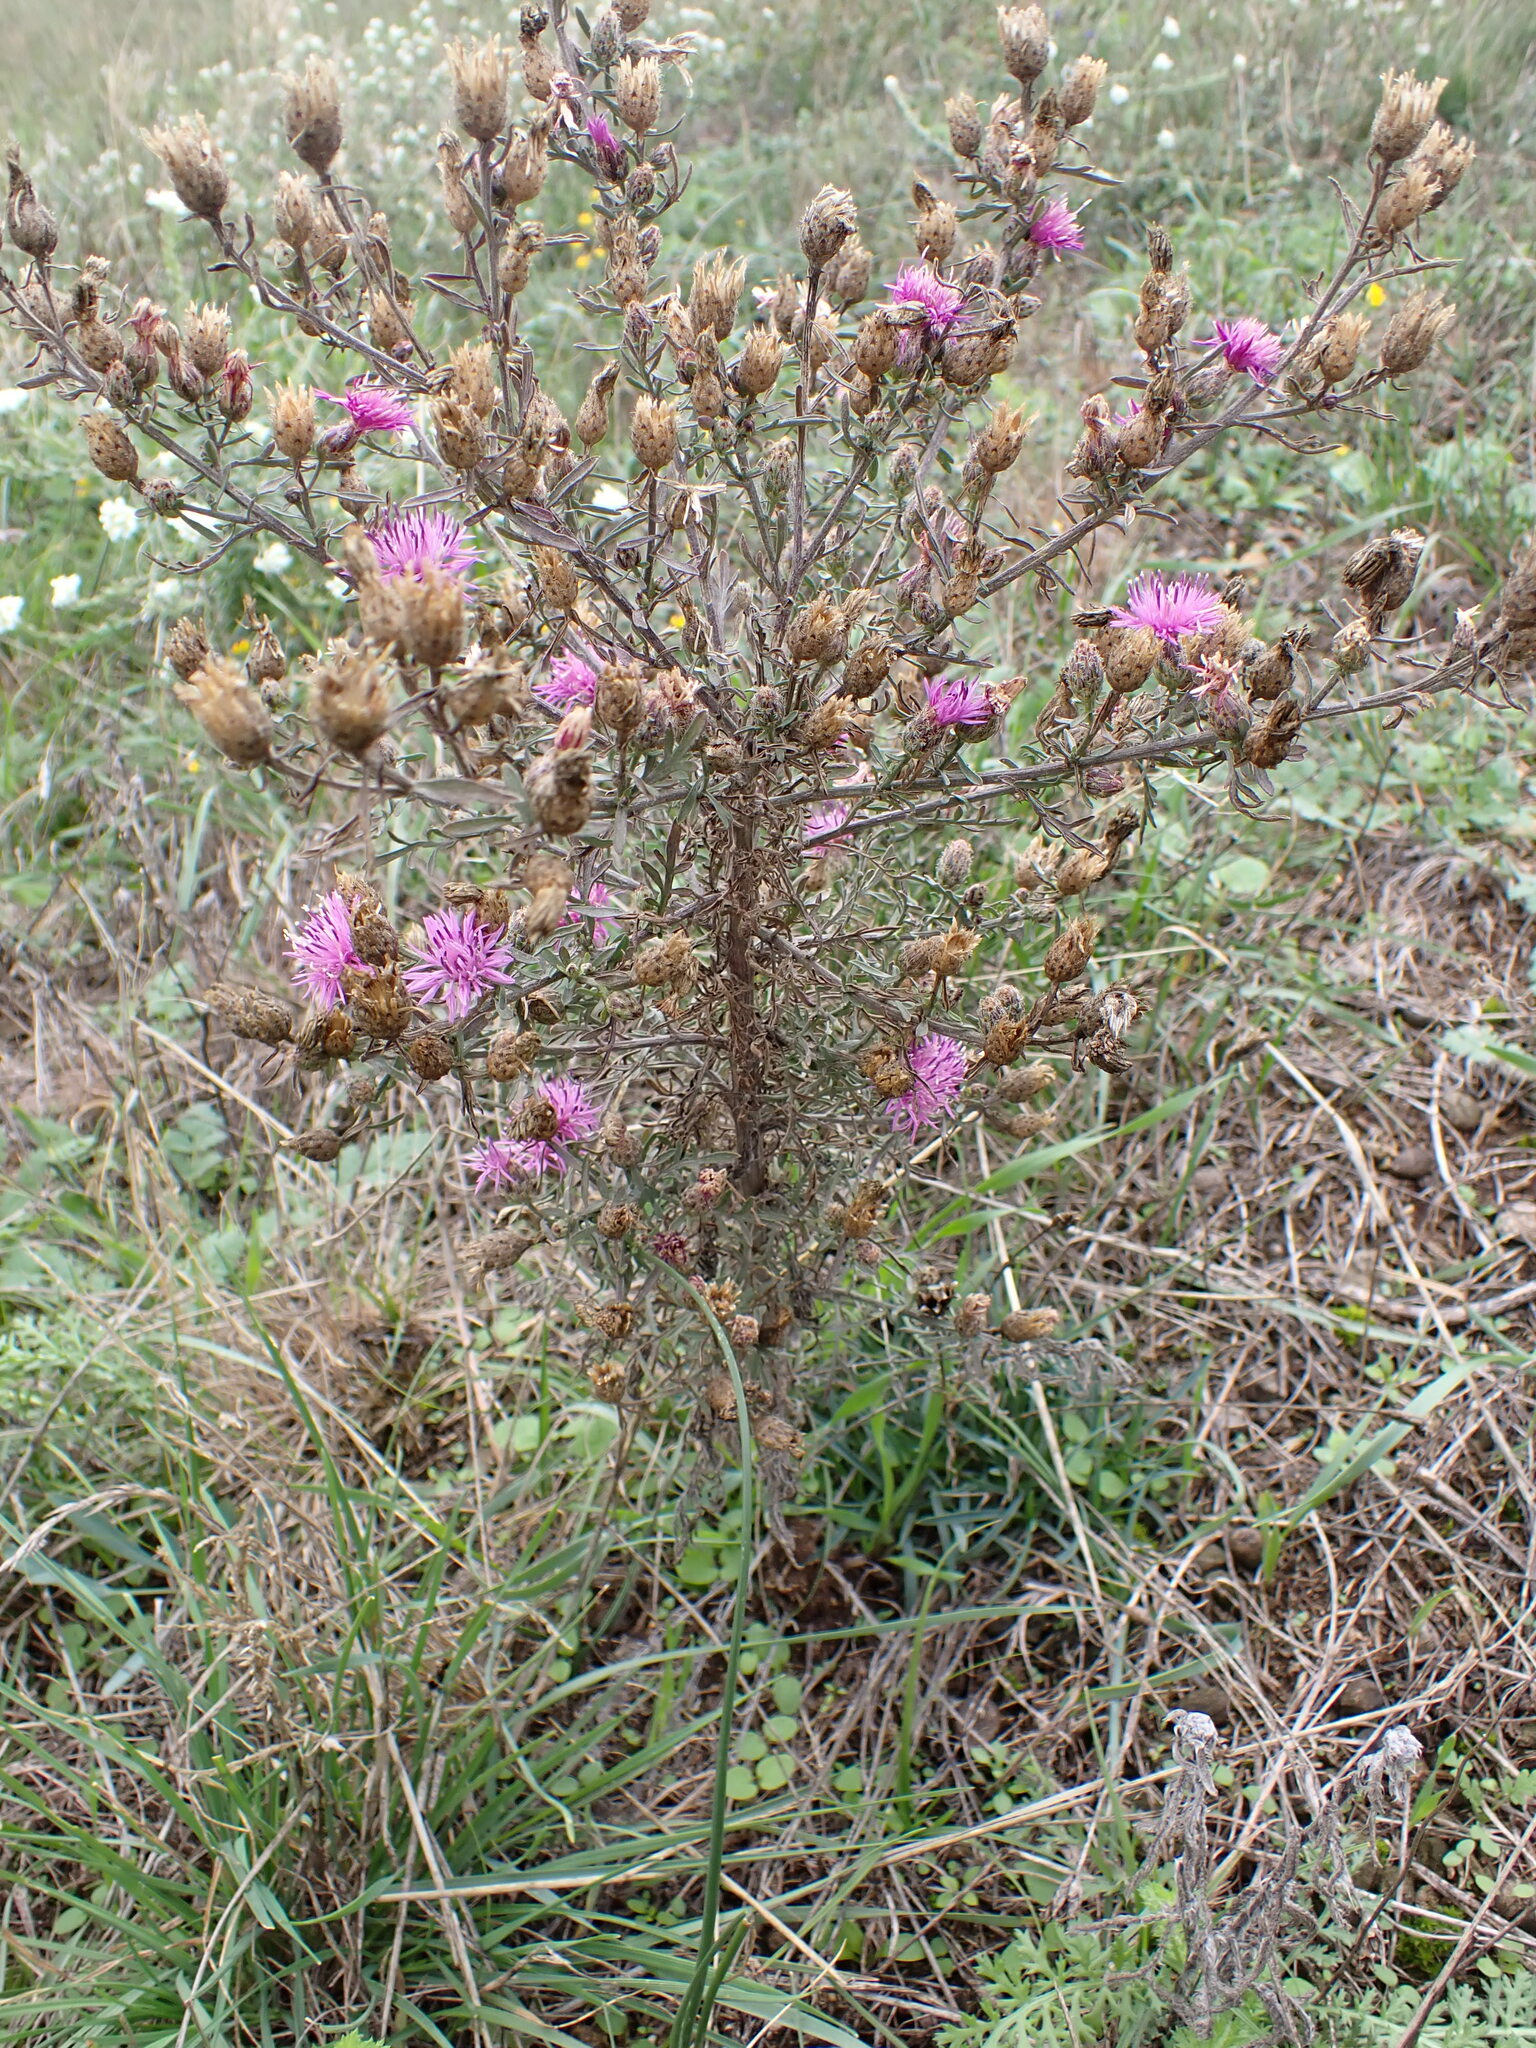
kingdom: Plantae
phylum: Tracheophyta
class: Magnoliopsida
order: Asterales
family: Asteraceae
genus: Centaurea
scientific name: Centaurea stoebe
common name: Spotted knapweed
